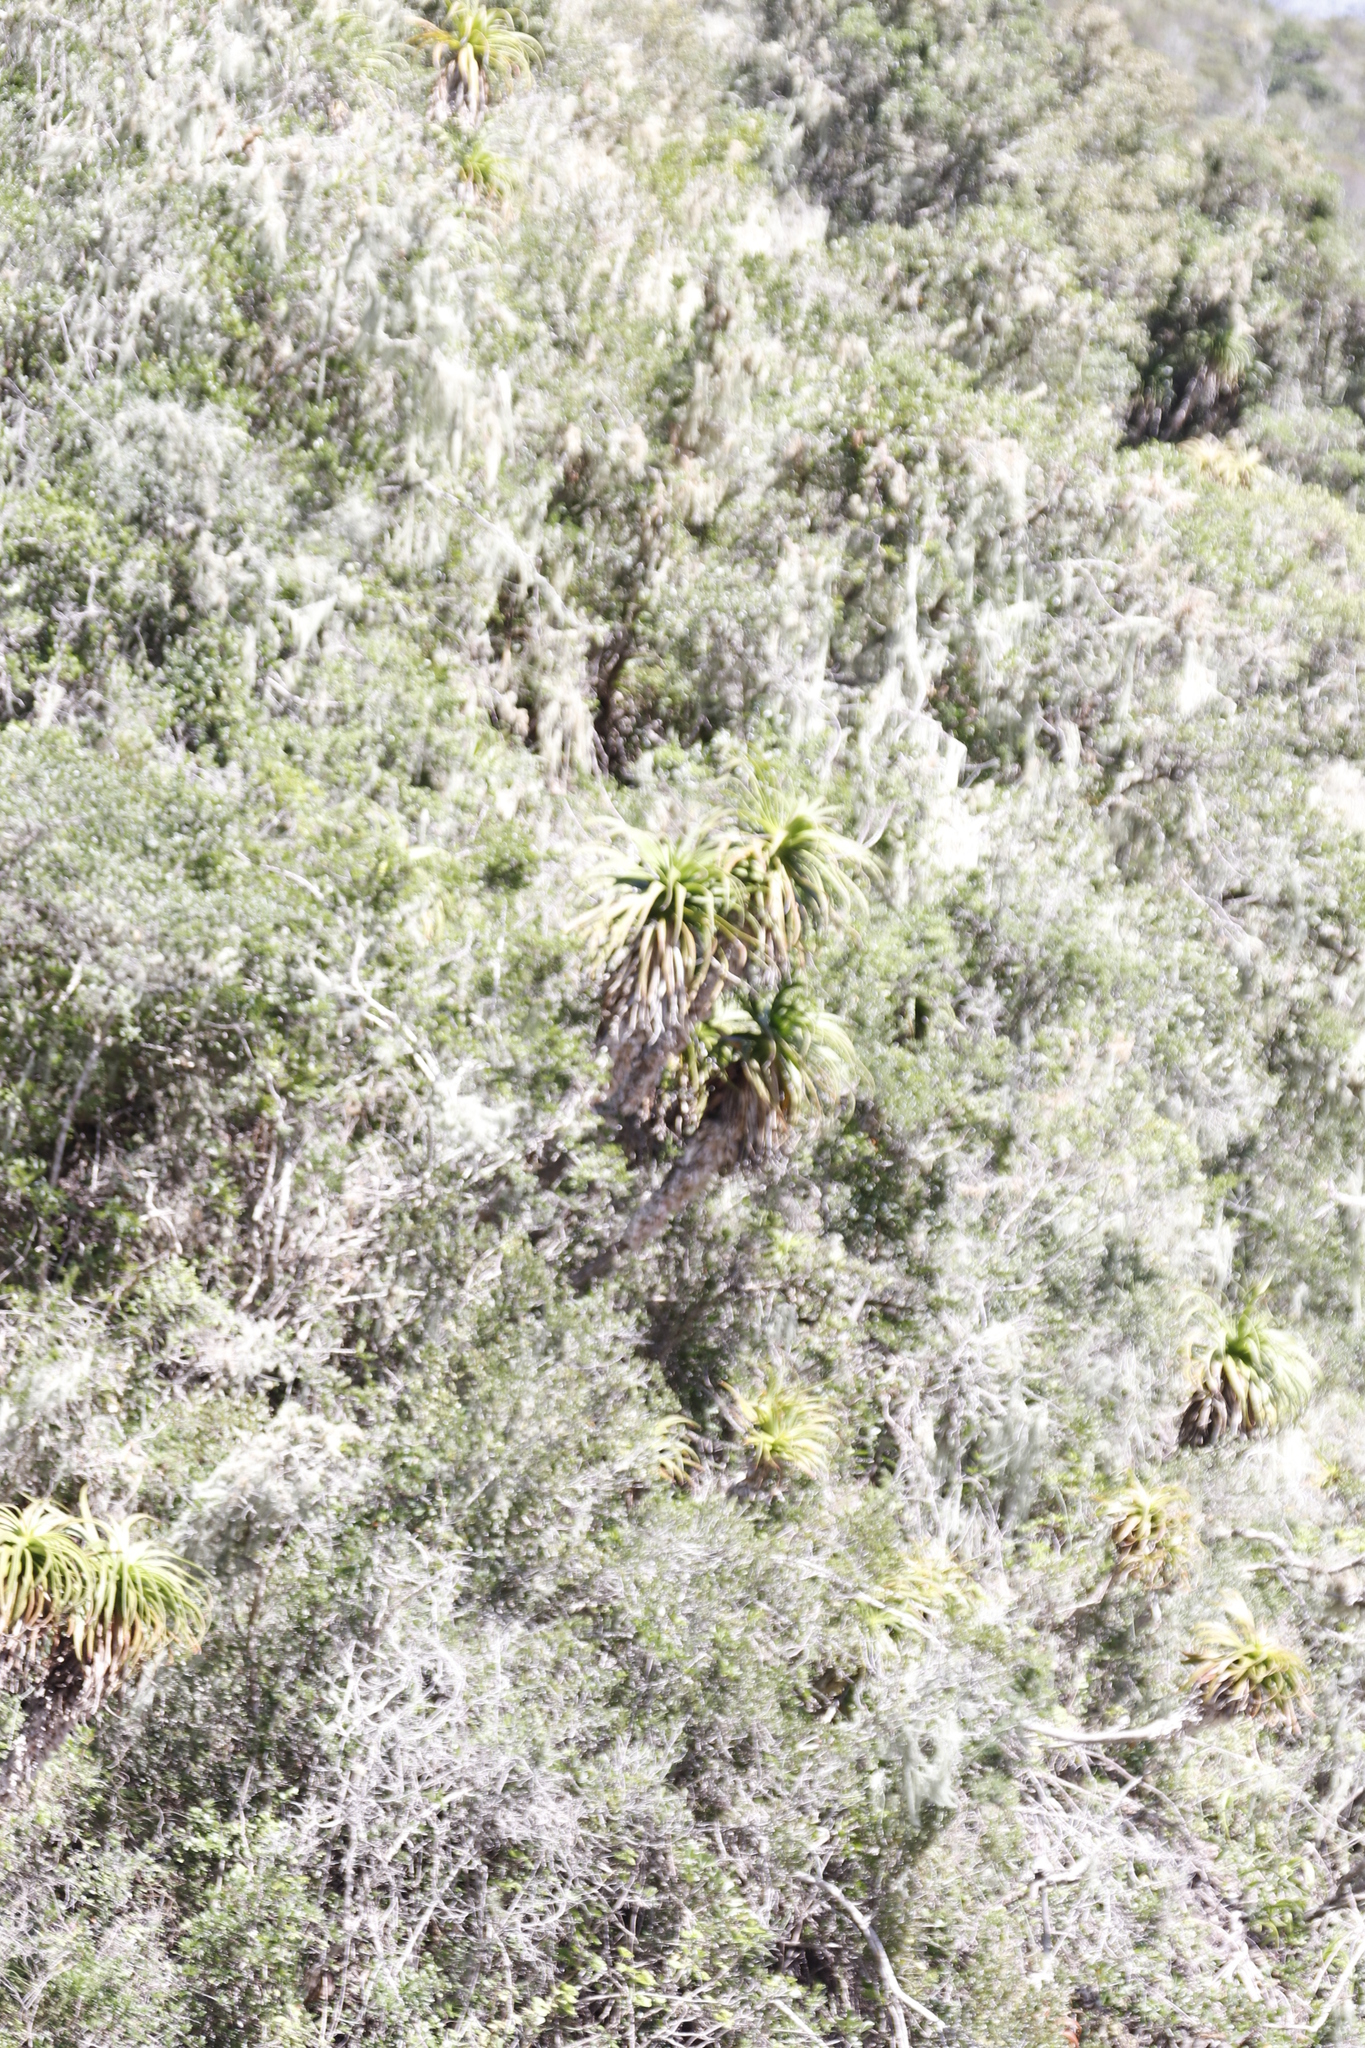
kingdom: Plantae
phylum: Tracheophyta
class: Liliopsida
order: Asparagales
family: Asphodelaceae
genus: Aloe
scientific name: Aloe pluridens
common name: French aloe
